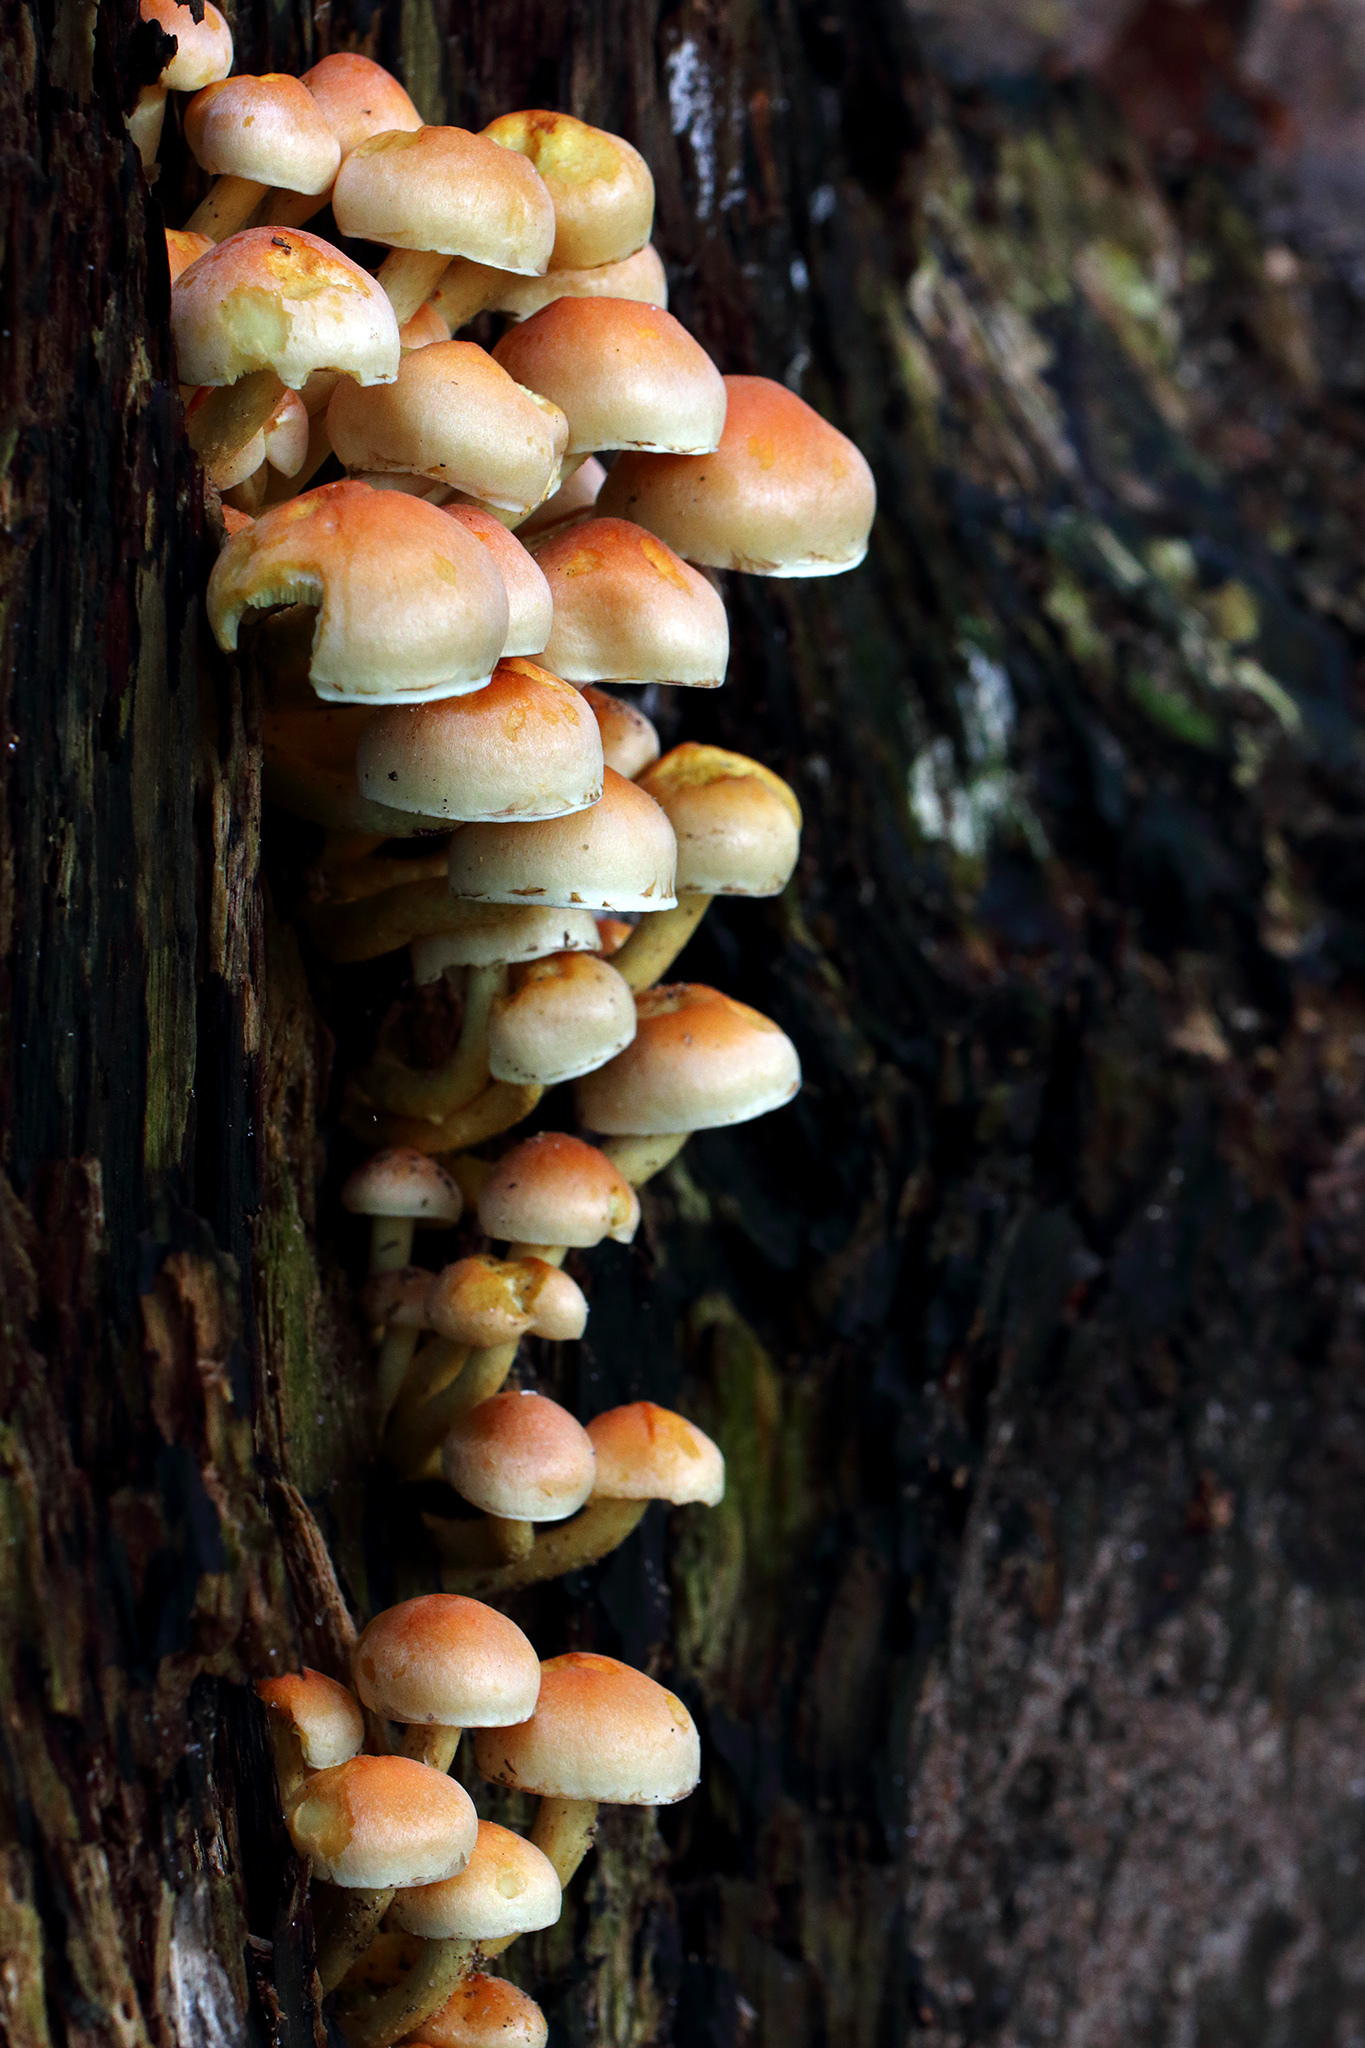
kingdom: Fungi
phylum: Basidiomycota
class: Agaricomycetes
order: Agaricales
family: Strophariaceae
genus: Hypholoma
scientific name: Hypholoma lateritium
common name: Brick caps
